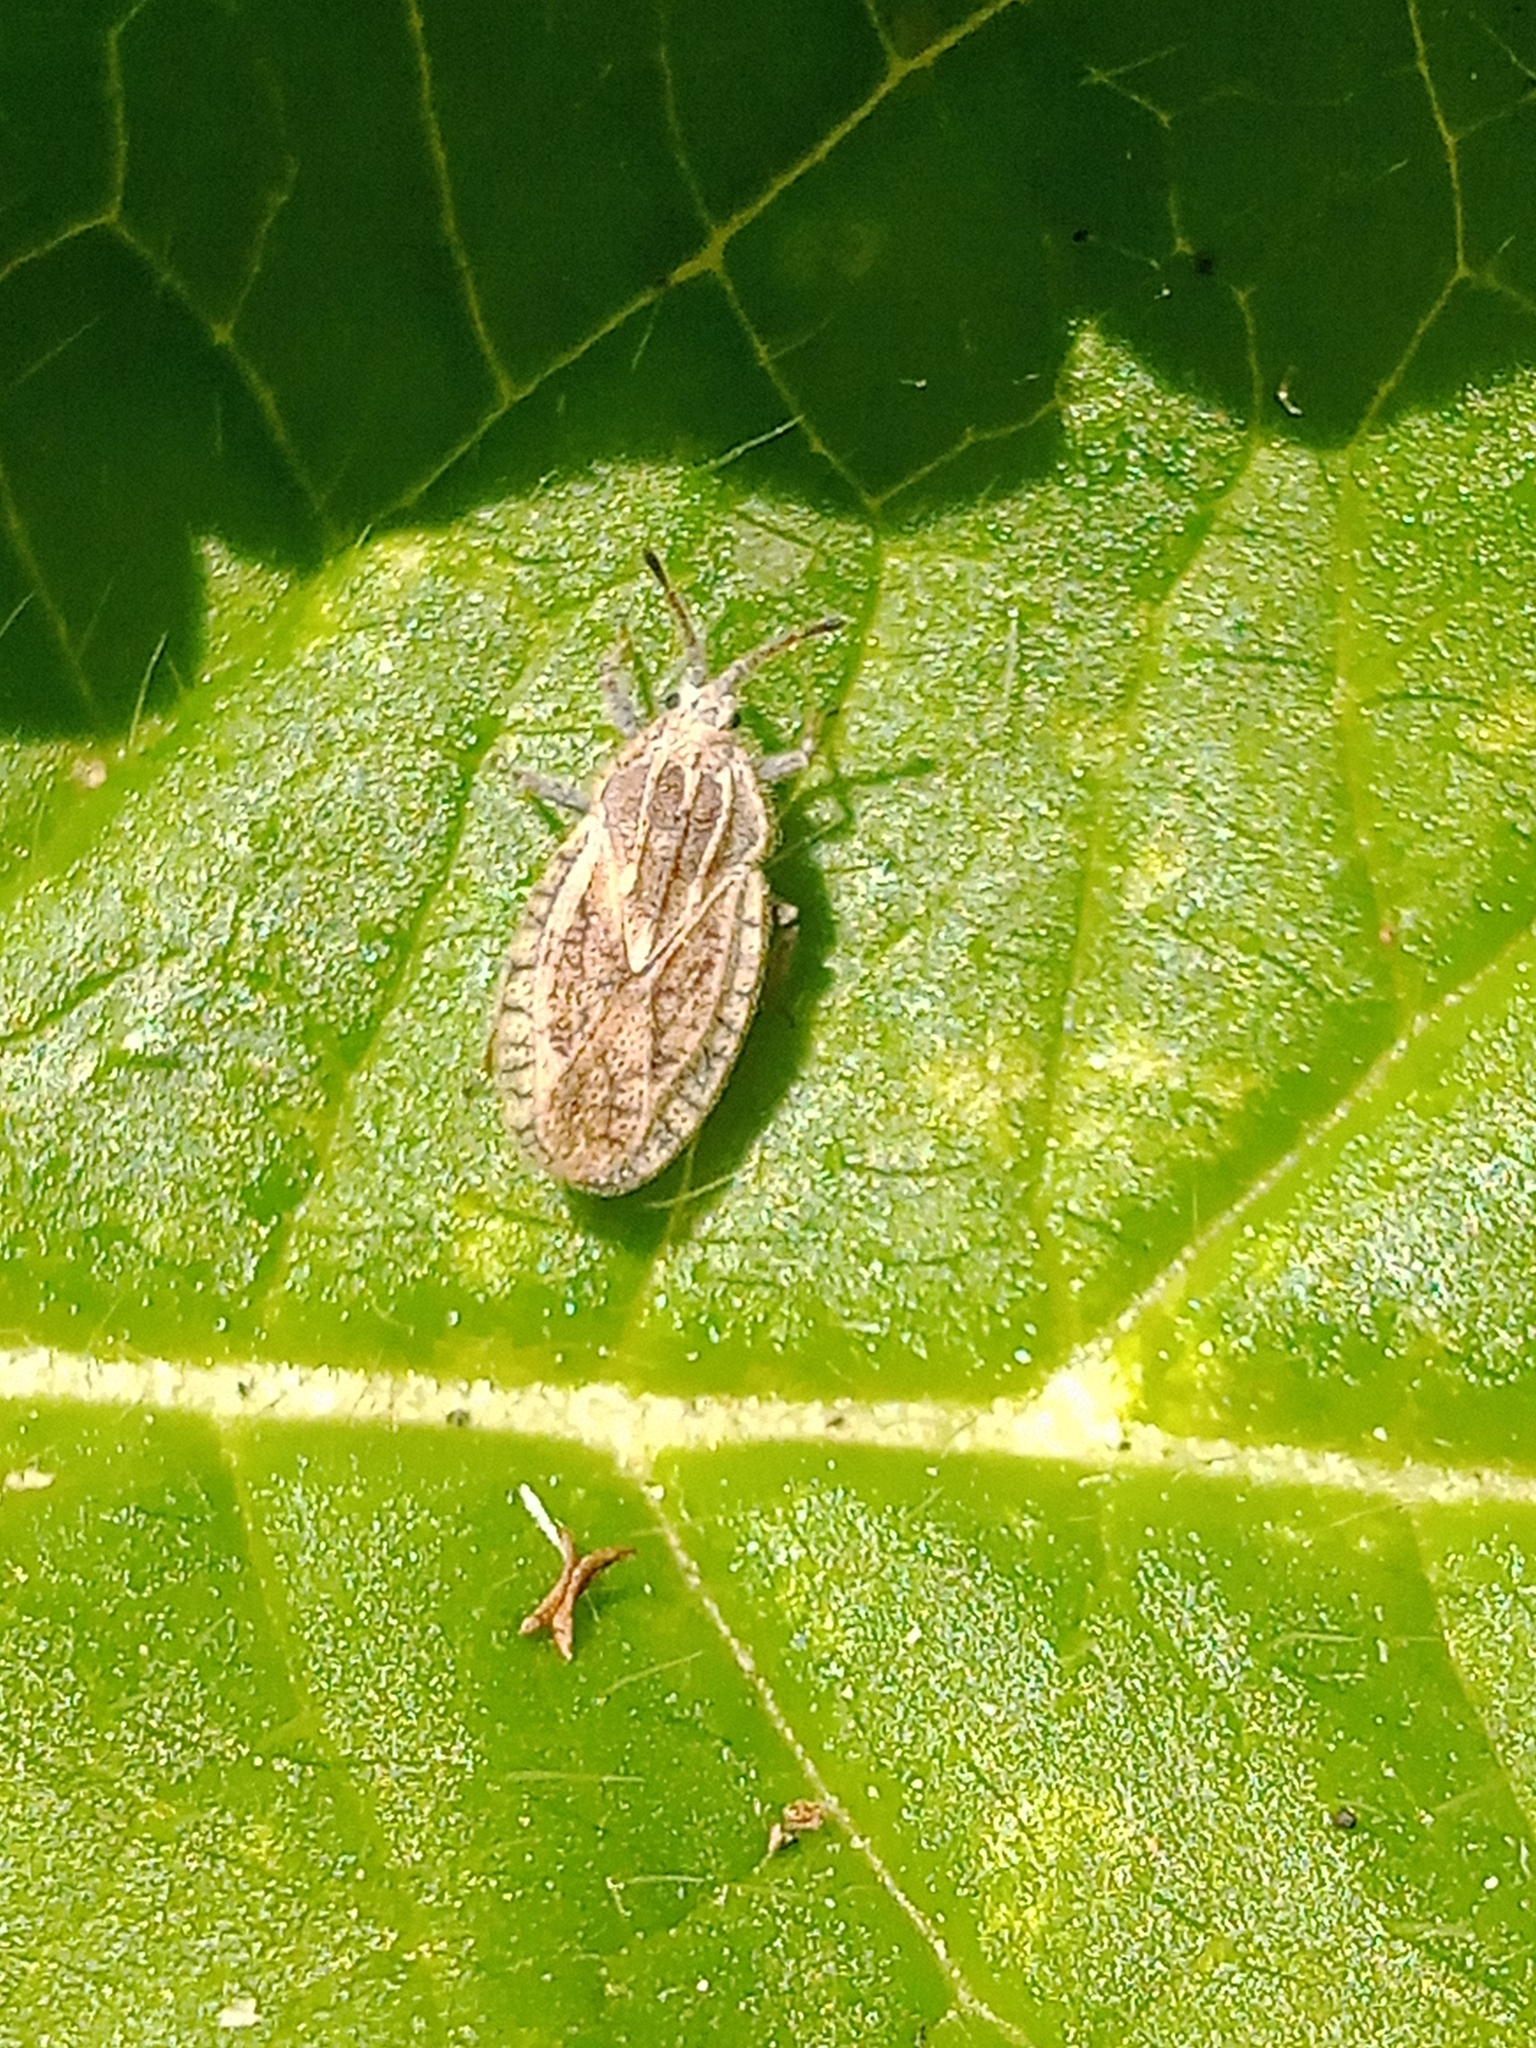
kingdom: Animalia
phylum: Arthropoda
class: Insecta
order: Hemiptera
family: Tingidae
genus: Tingis
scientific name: Tingis pilosa
